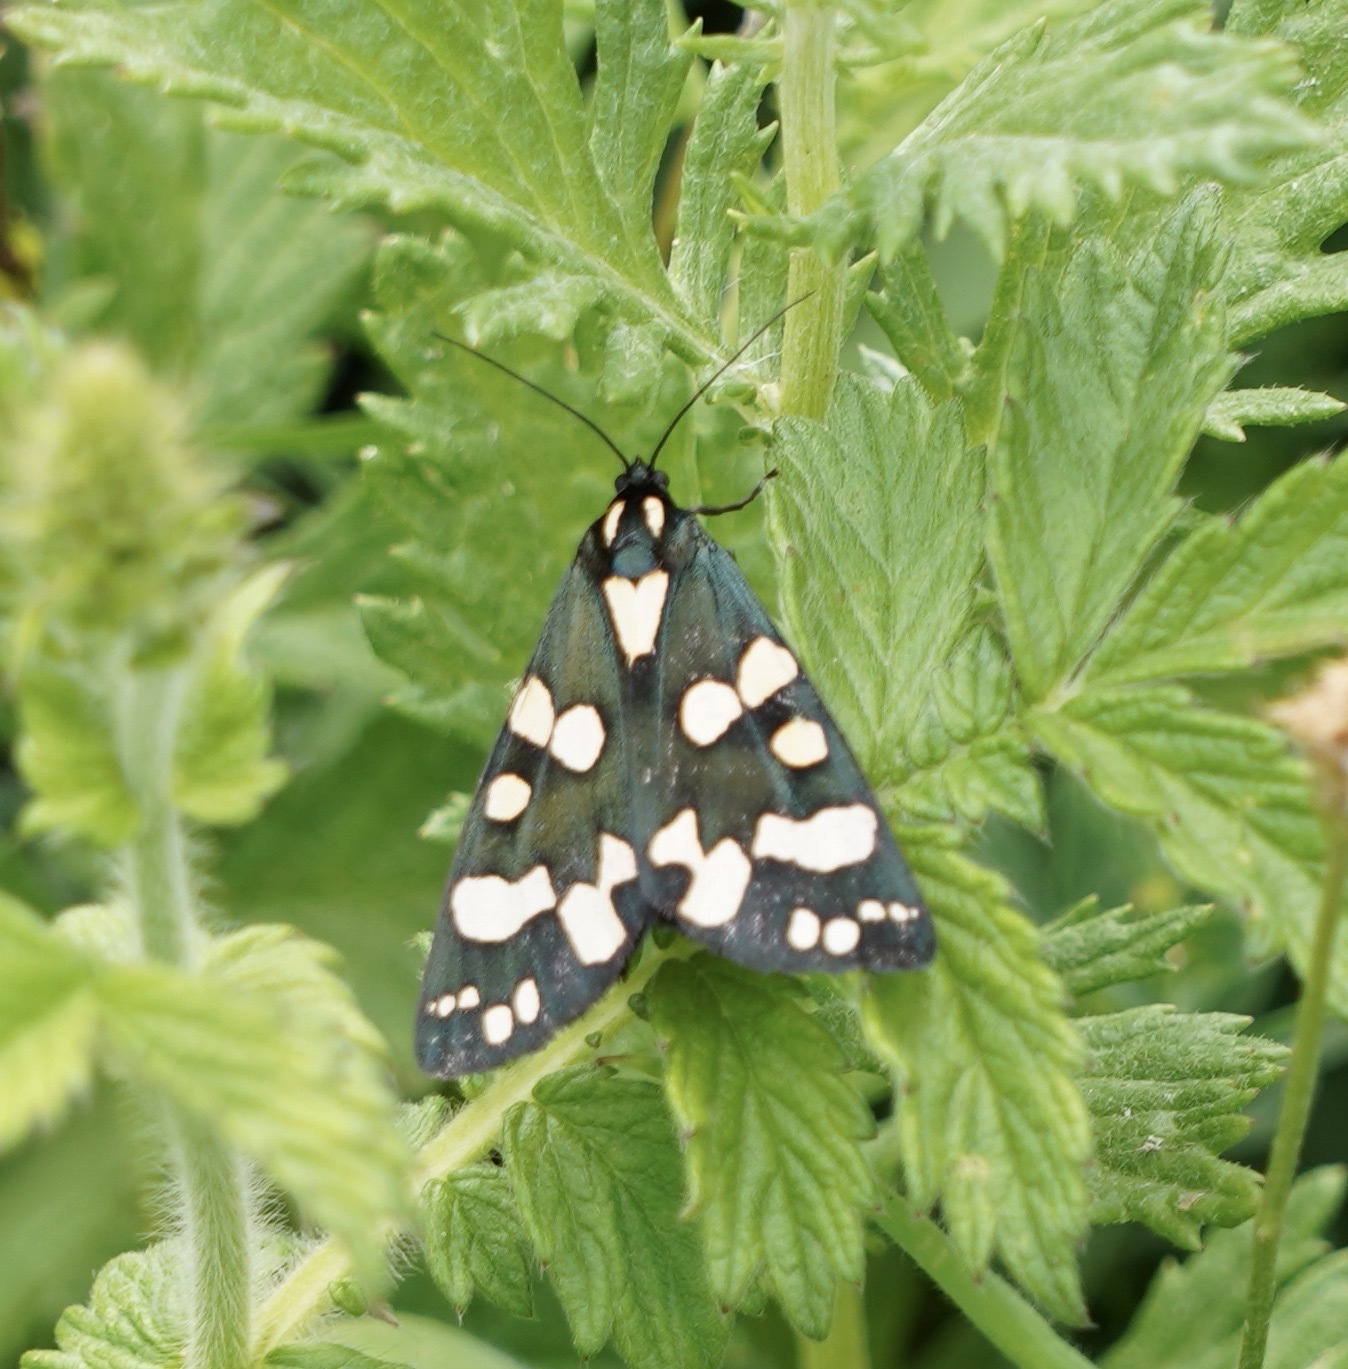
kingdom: Animalia
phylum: Arthropoda
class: Insecta
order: Lepidoptera
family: Erebidae
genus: Callimorpha
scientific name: Callimorpha dominula
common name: Scarlet tiger
